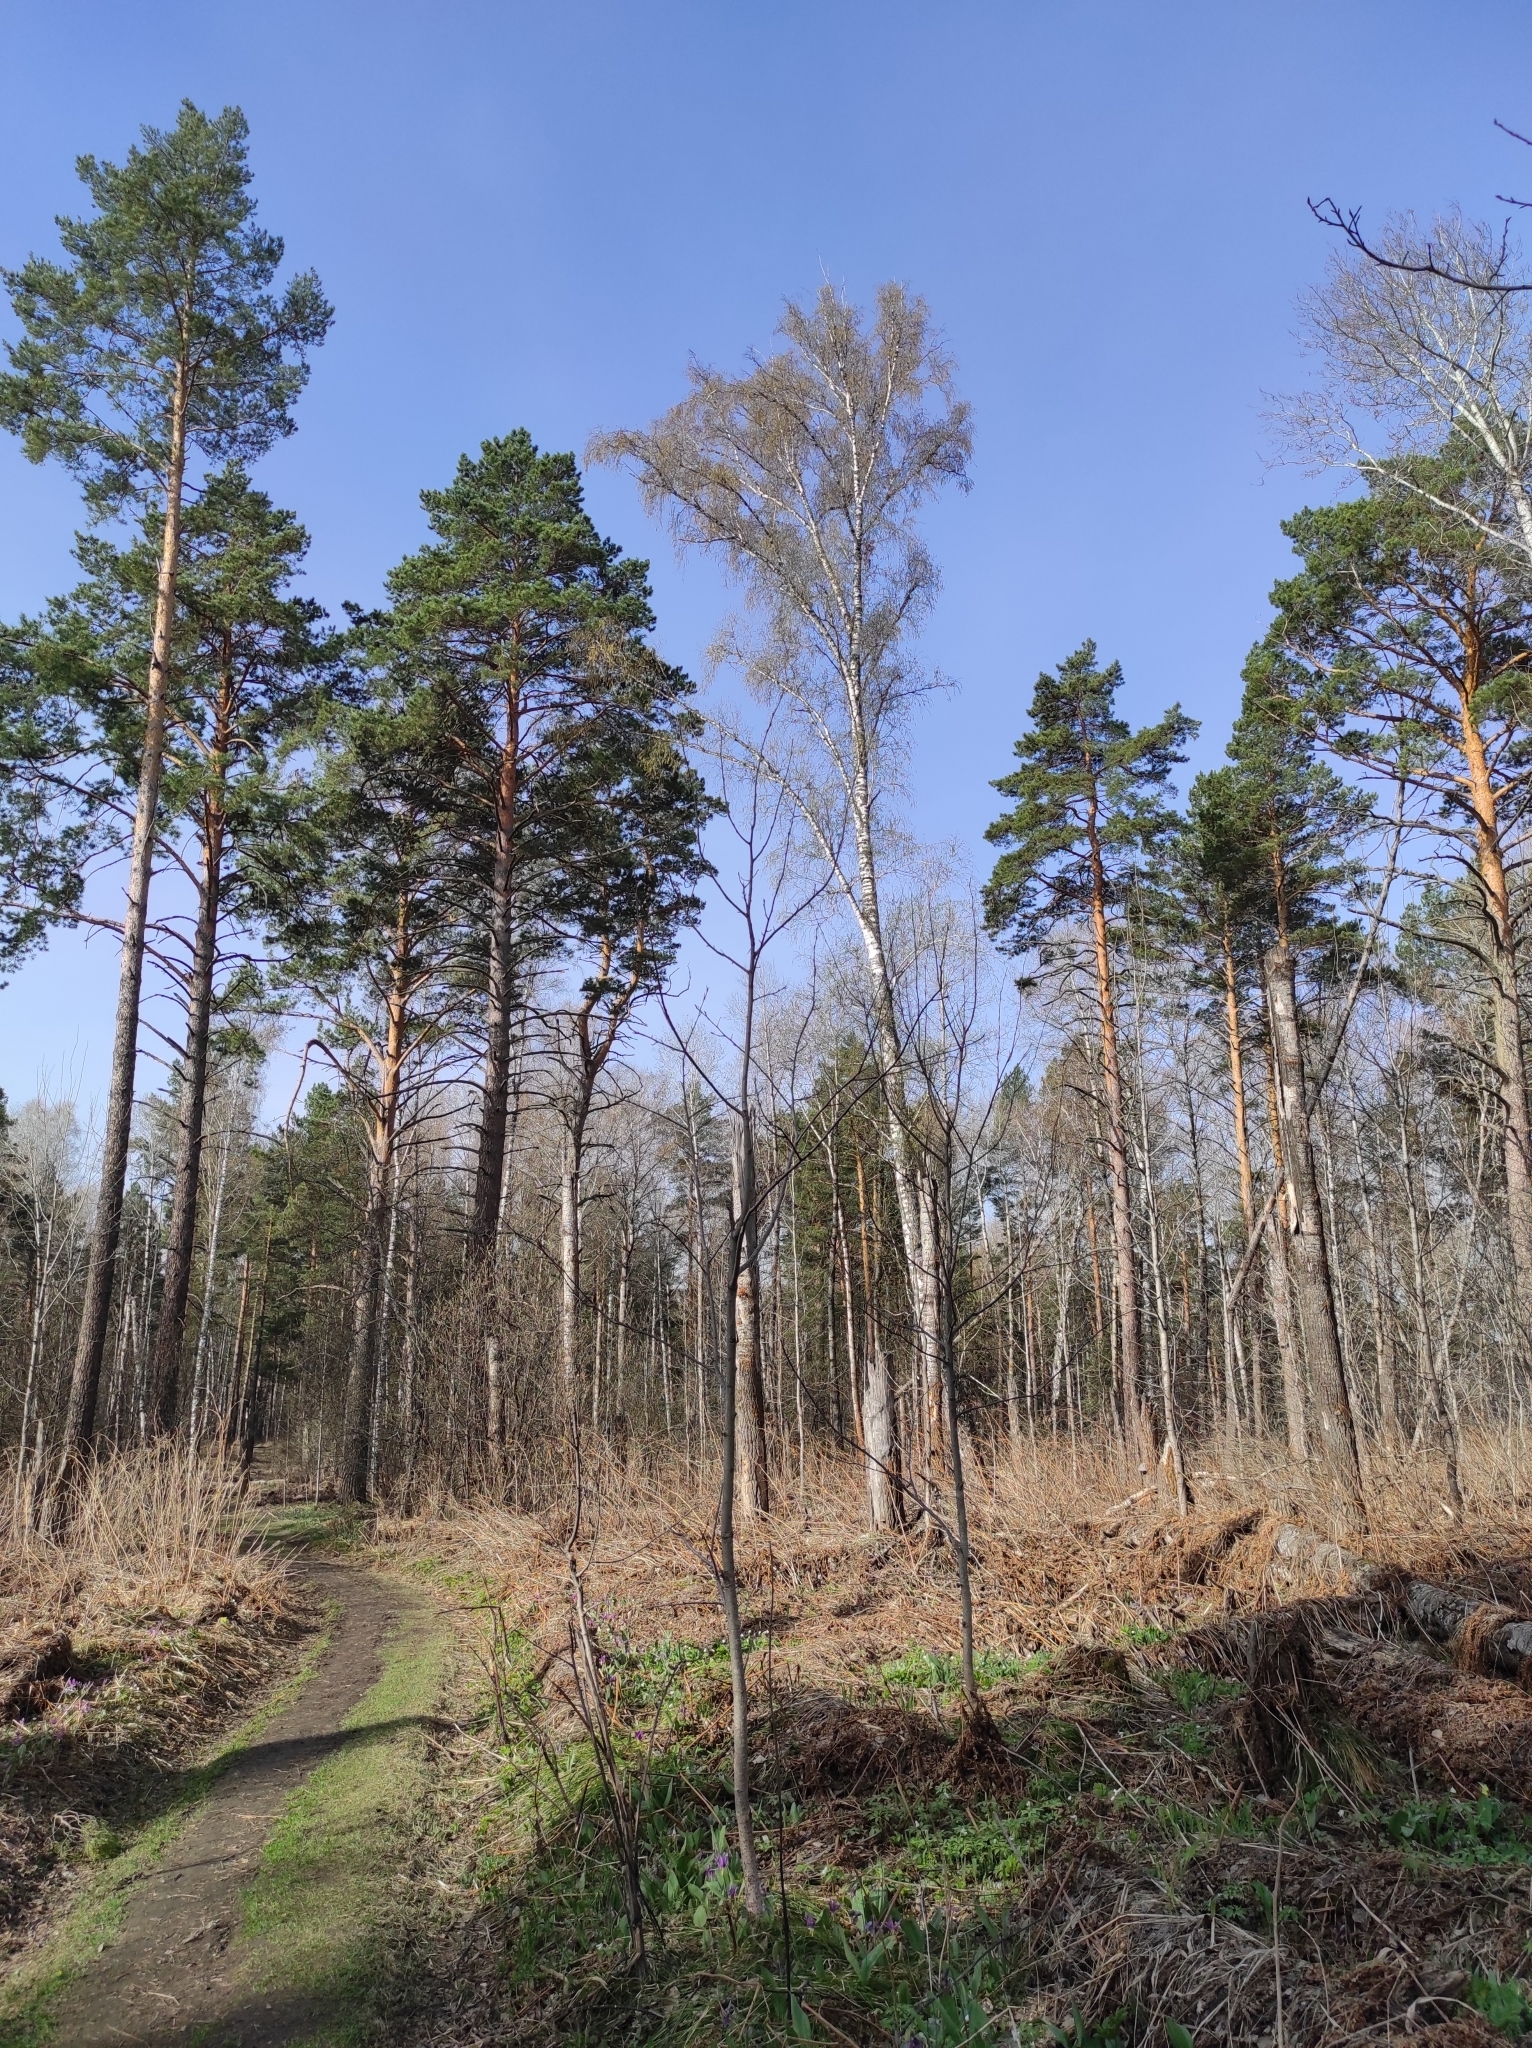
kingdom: Plantae
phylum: Tracheophyta
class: Liliopsida
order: Liliales
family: Liliaceae
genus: Erythronium
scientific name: Erythronium sibiricum
